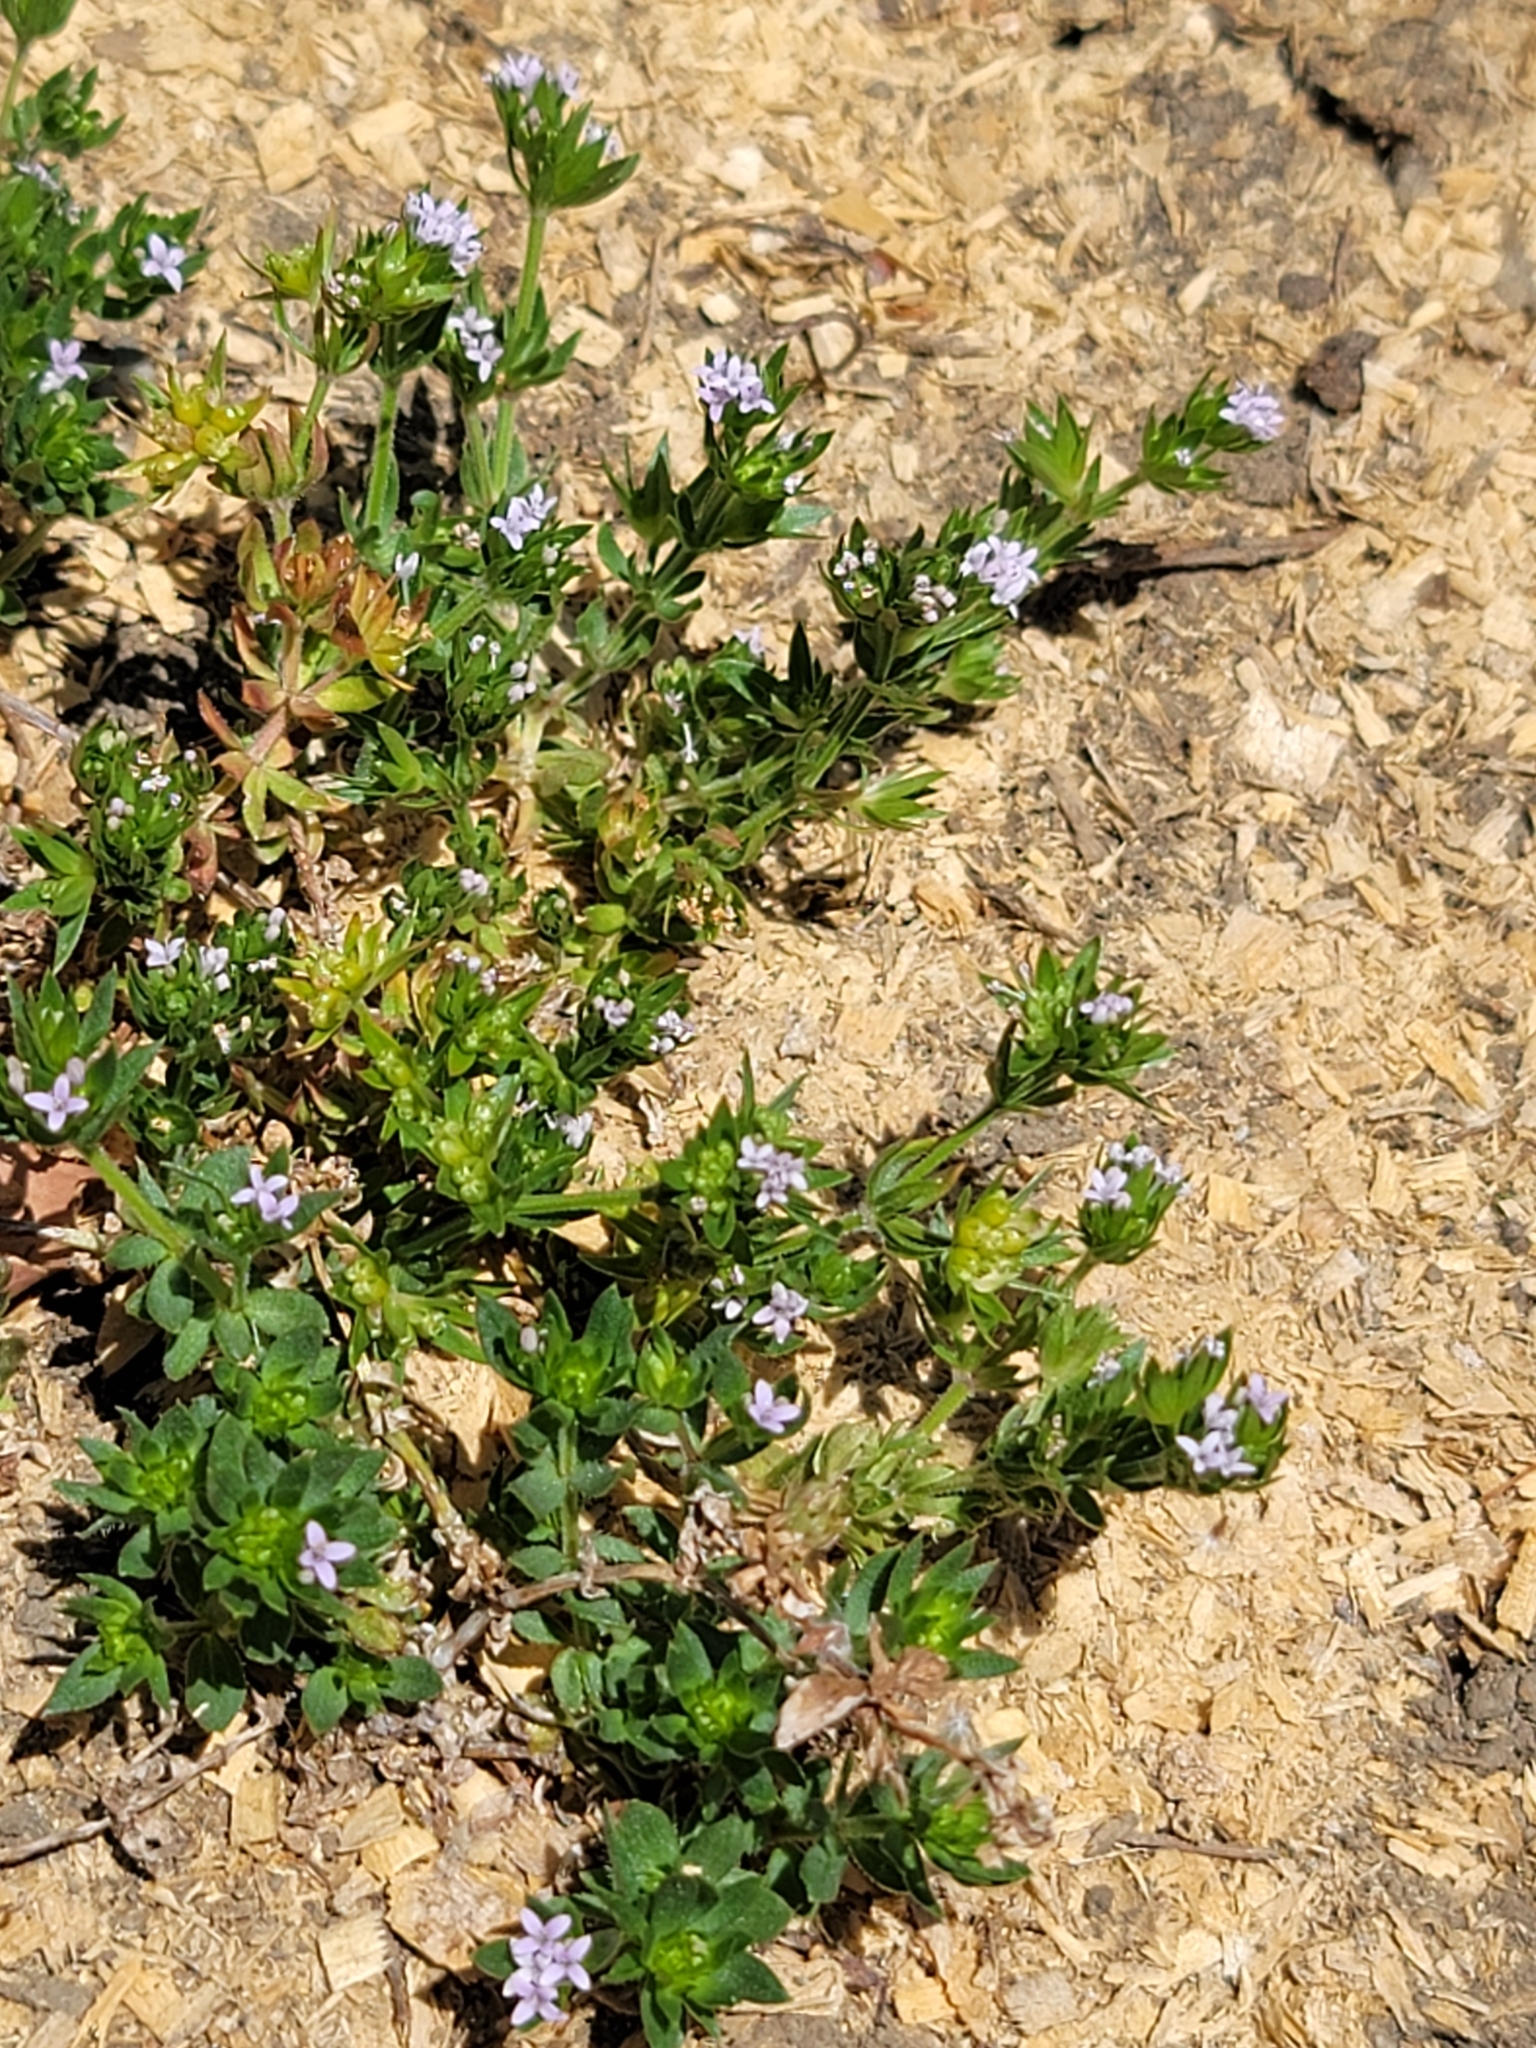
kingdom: Plantae
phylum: Tracheophyta
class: Magnoliopsida
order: Gentianales
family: Rubiaceae
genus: Sherardia
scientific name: Sherardia arvensis
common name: Field madder
